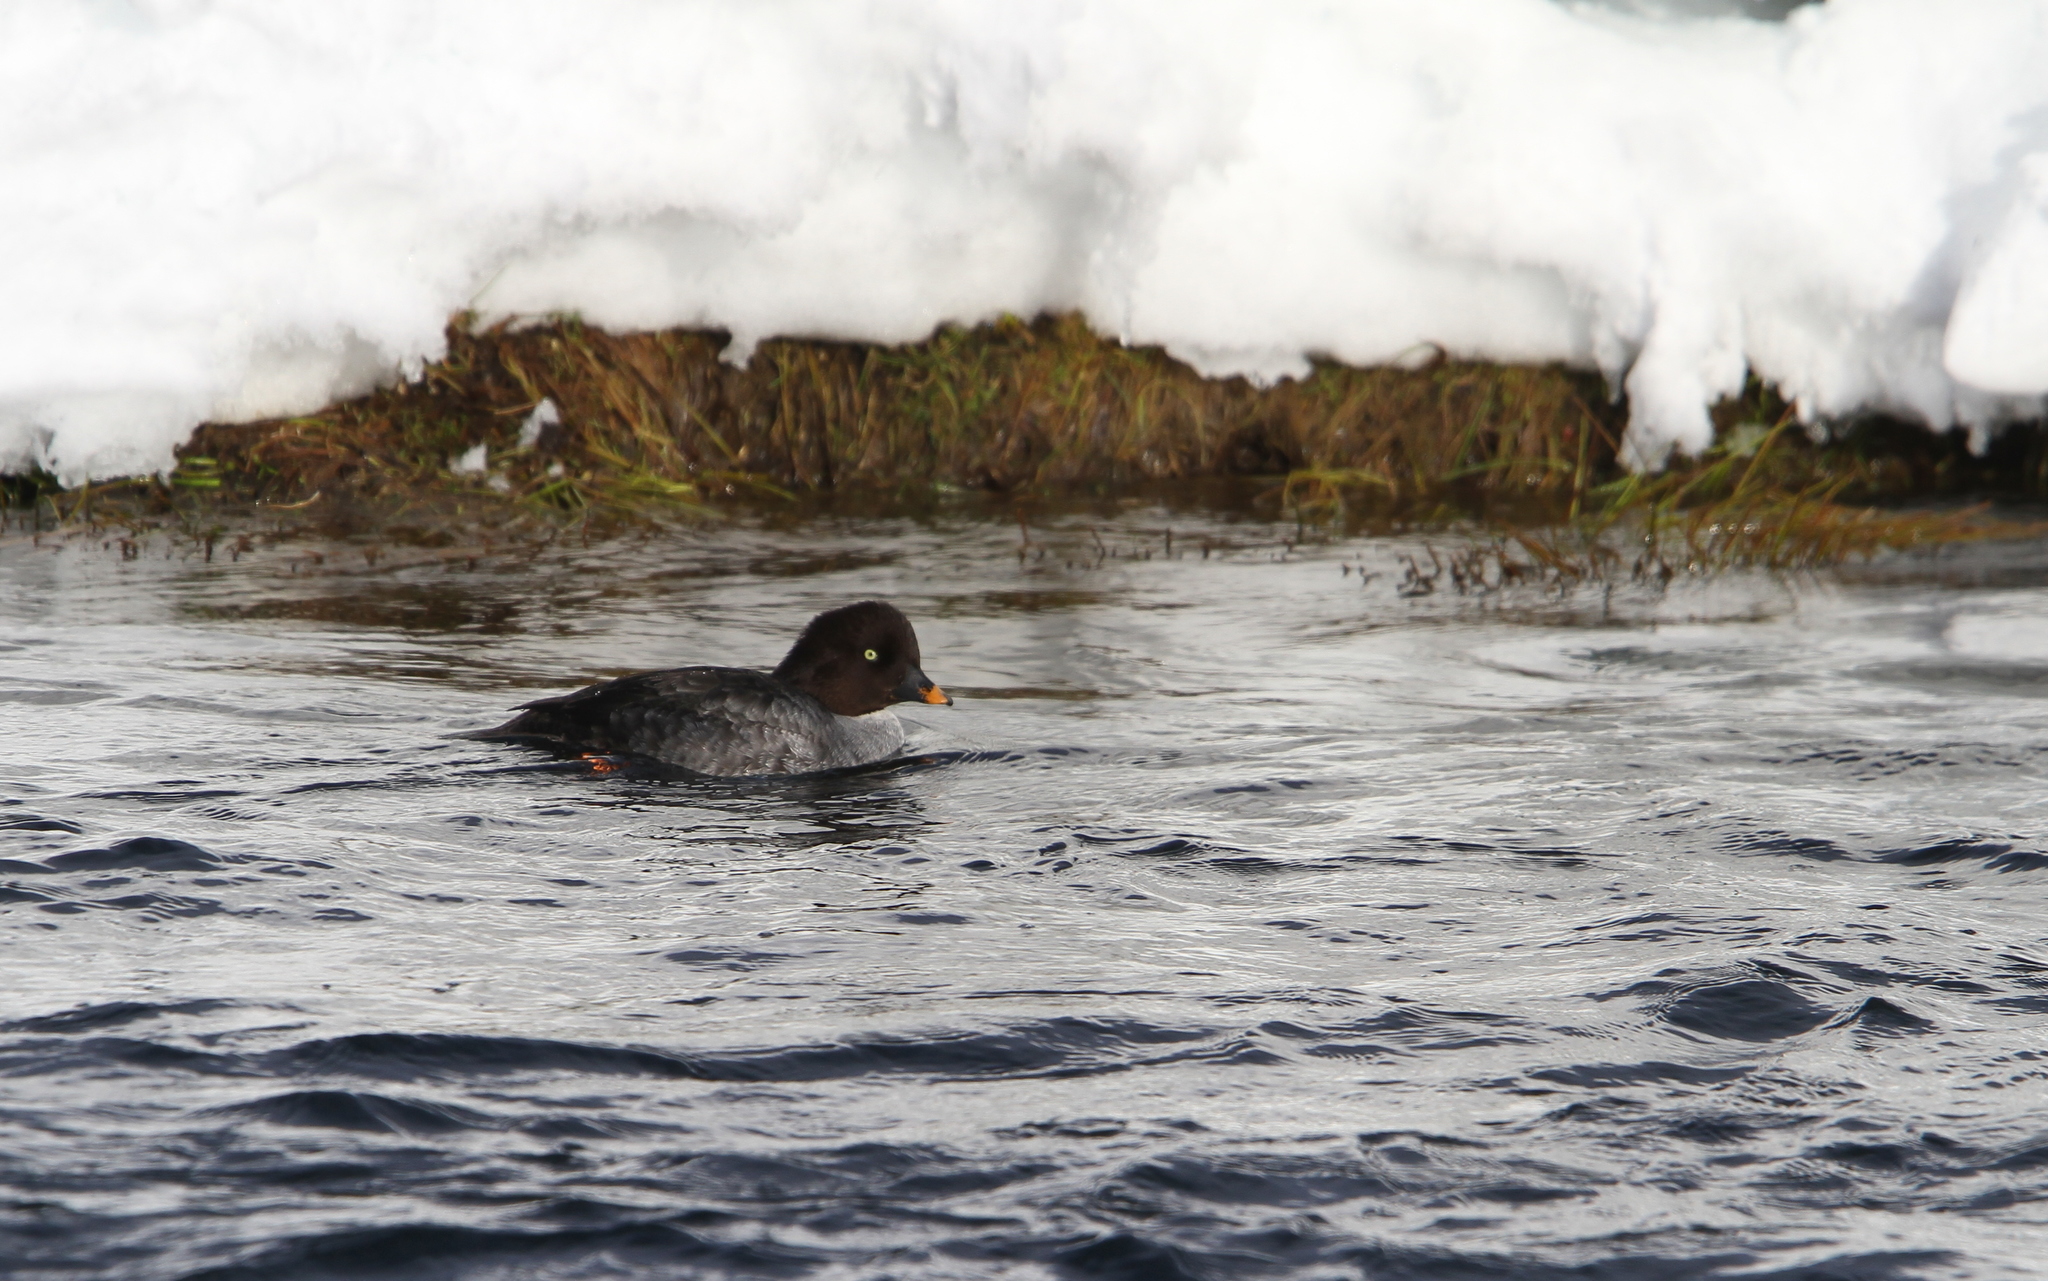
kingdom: Animalia
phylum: Chordata
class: Aves
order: Anseriformes
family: Anatidae
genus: Bucephala
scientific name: Bucephala islandica
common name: Barrow's goldeneye
